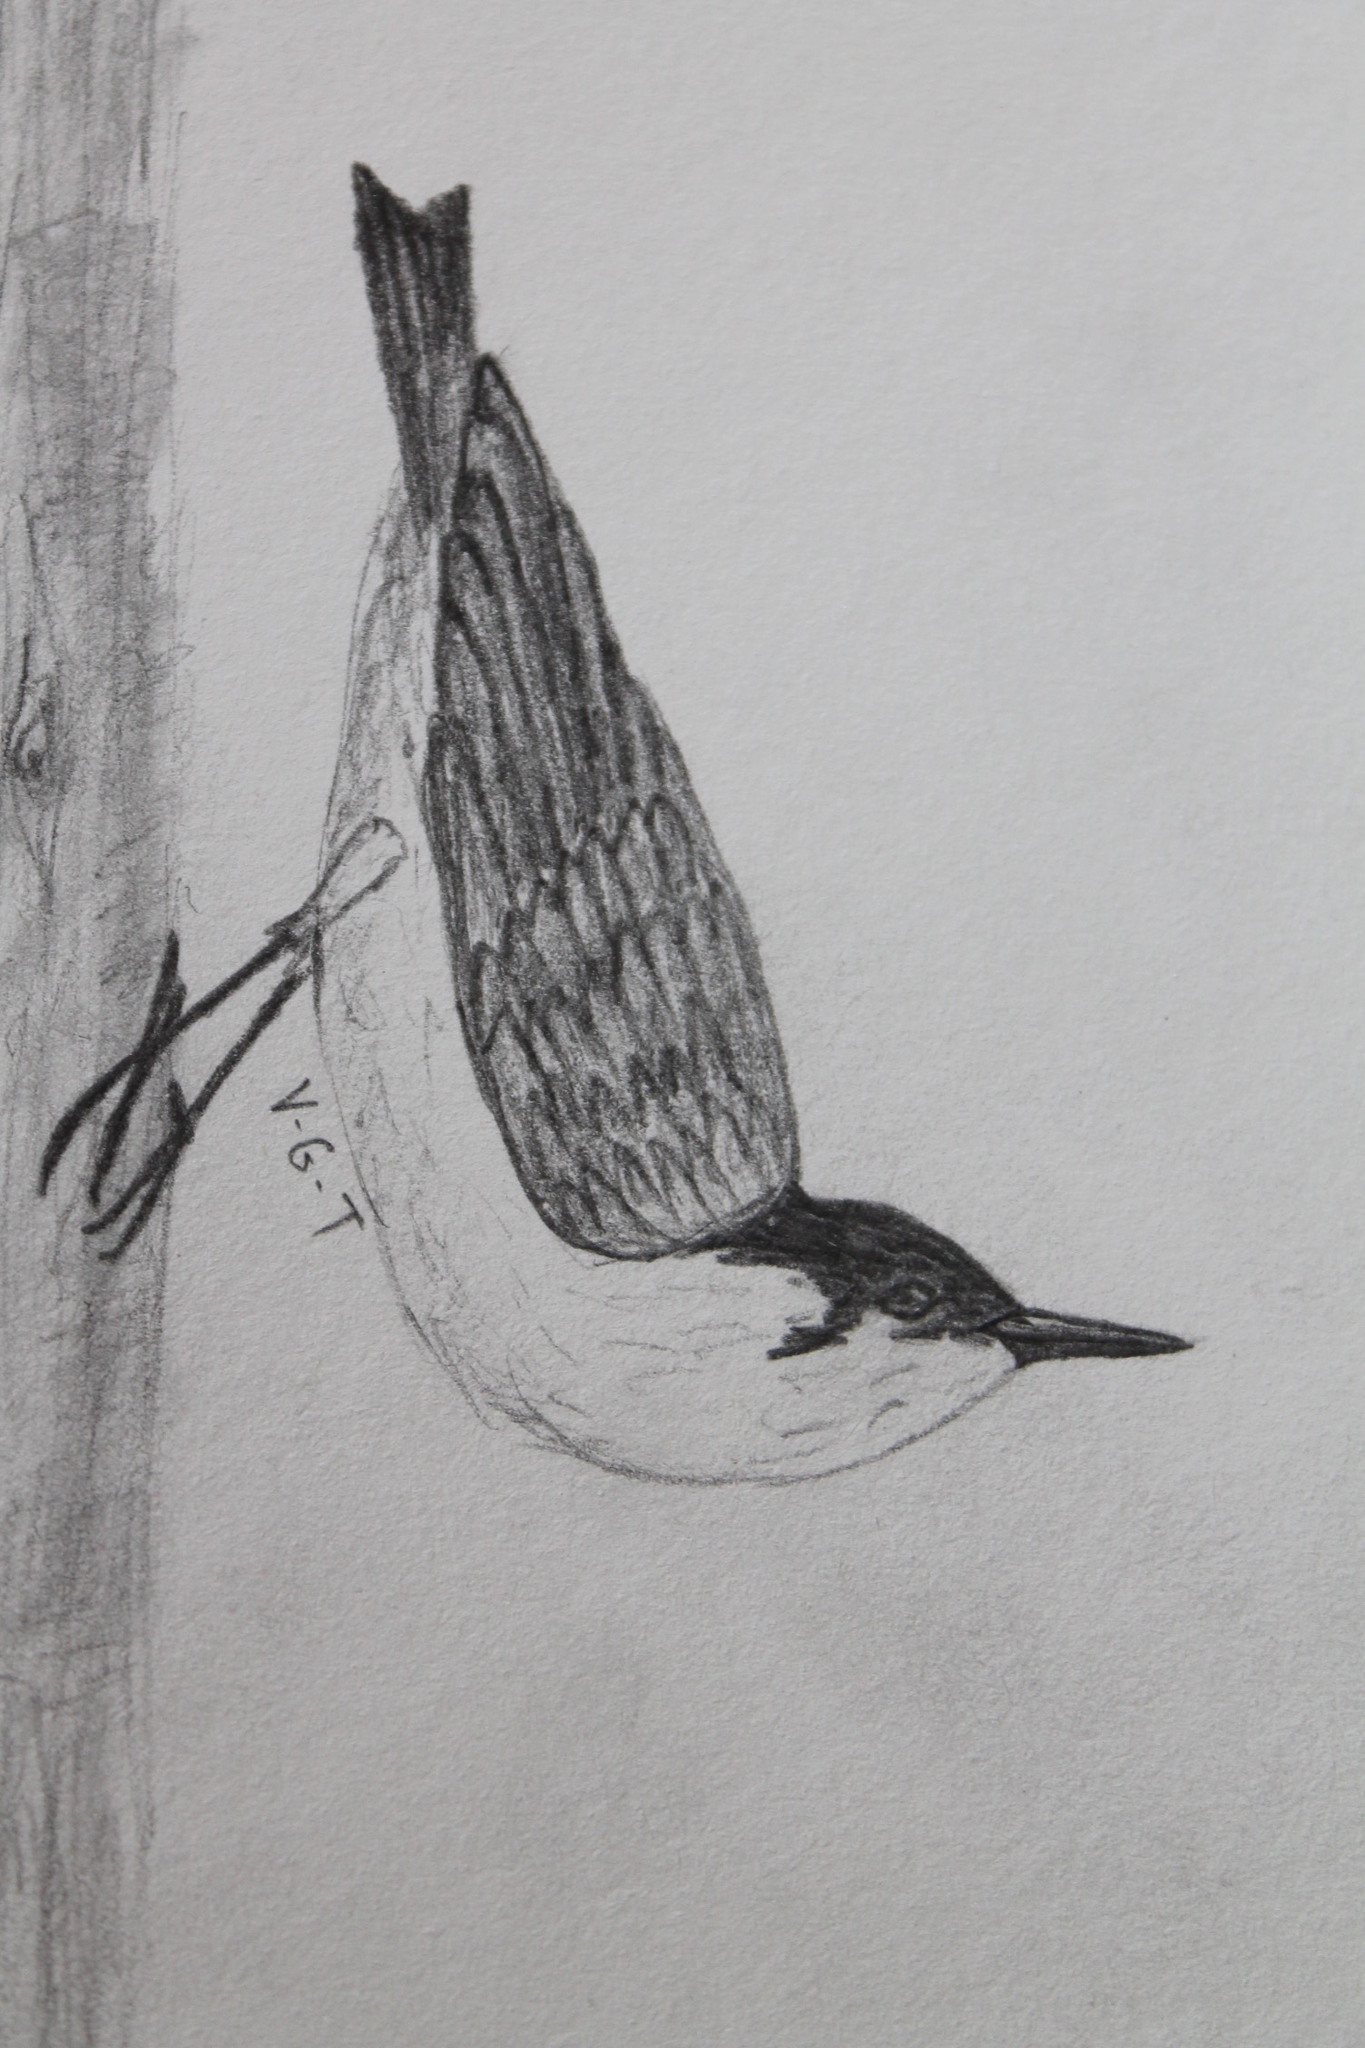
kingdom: Animalia
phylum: Chordata
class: Aves
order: Passeriformes
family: Sittidae
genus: Sitta
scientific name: Sitta carolinensis
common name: White-breasted nuthatch
